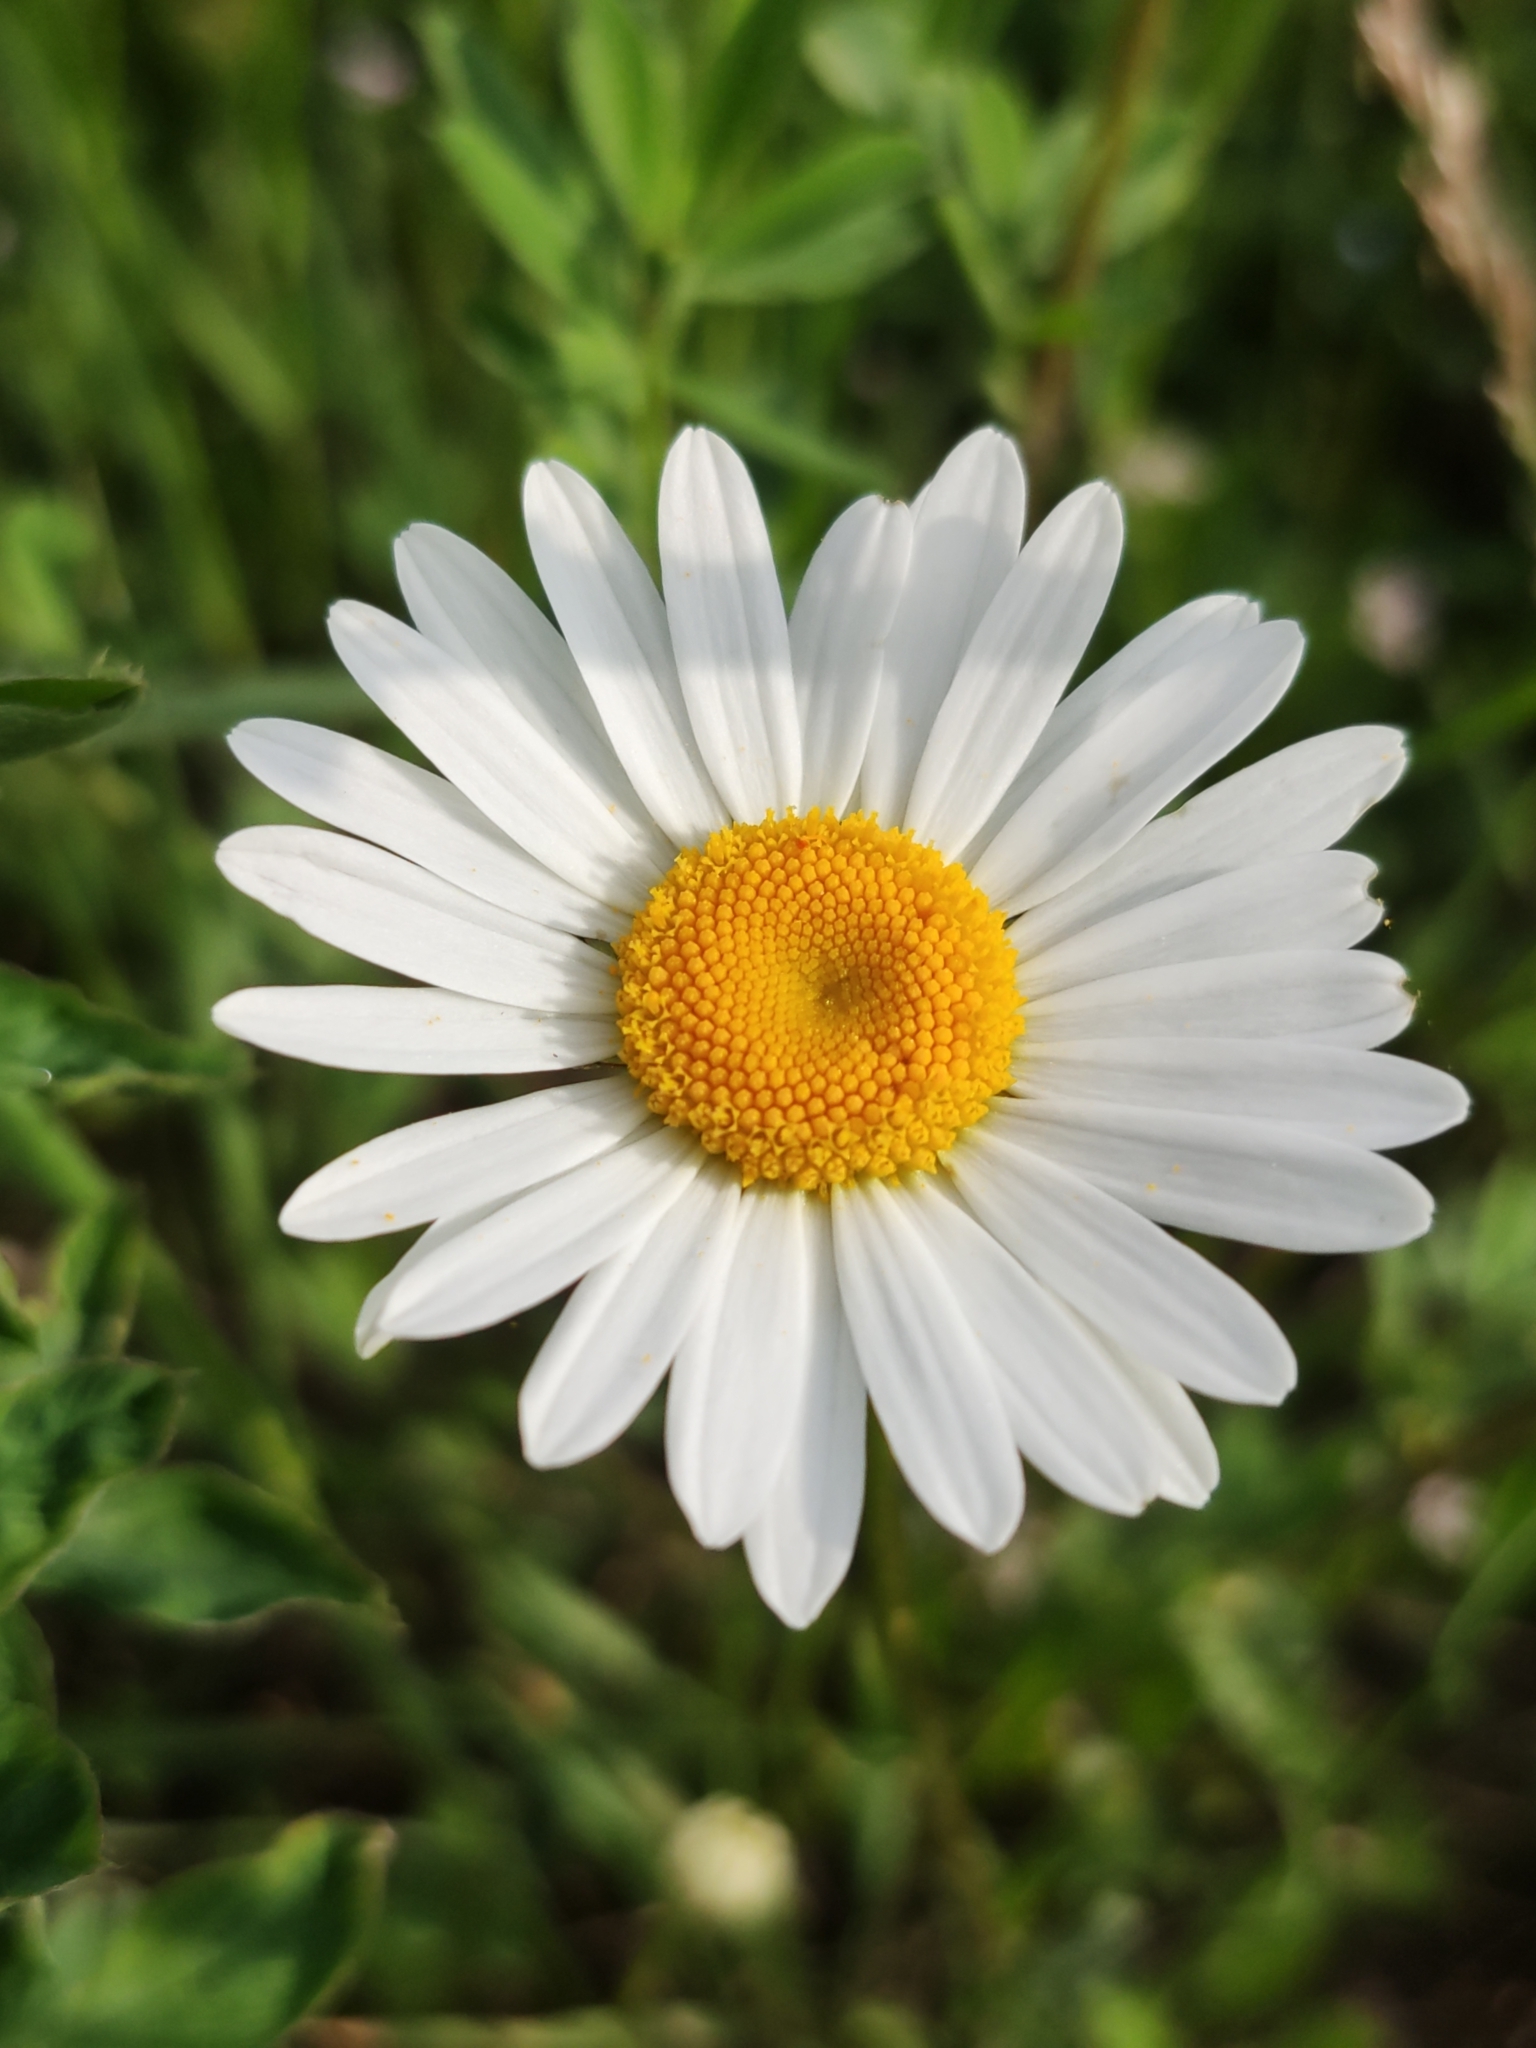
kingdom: Plantae
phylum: Tracheophyta
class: Magnoliopsida
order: Asterales
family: Asteraceae
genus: Leucanthemum
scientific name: Leucanthemum vulgare
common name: Oxeye daisy
